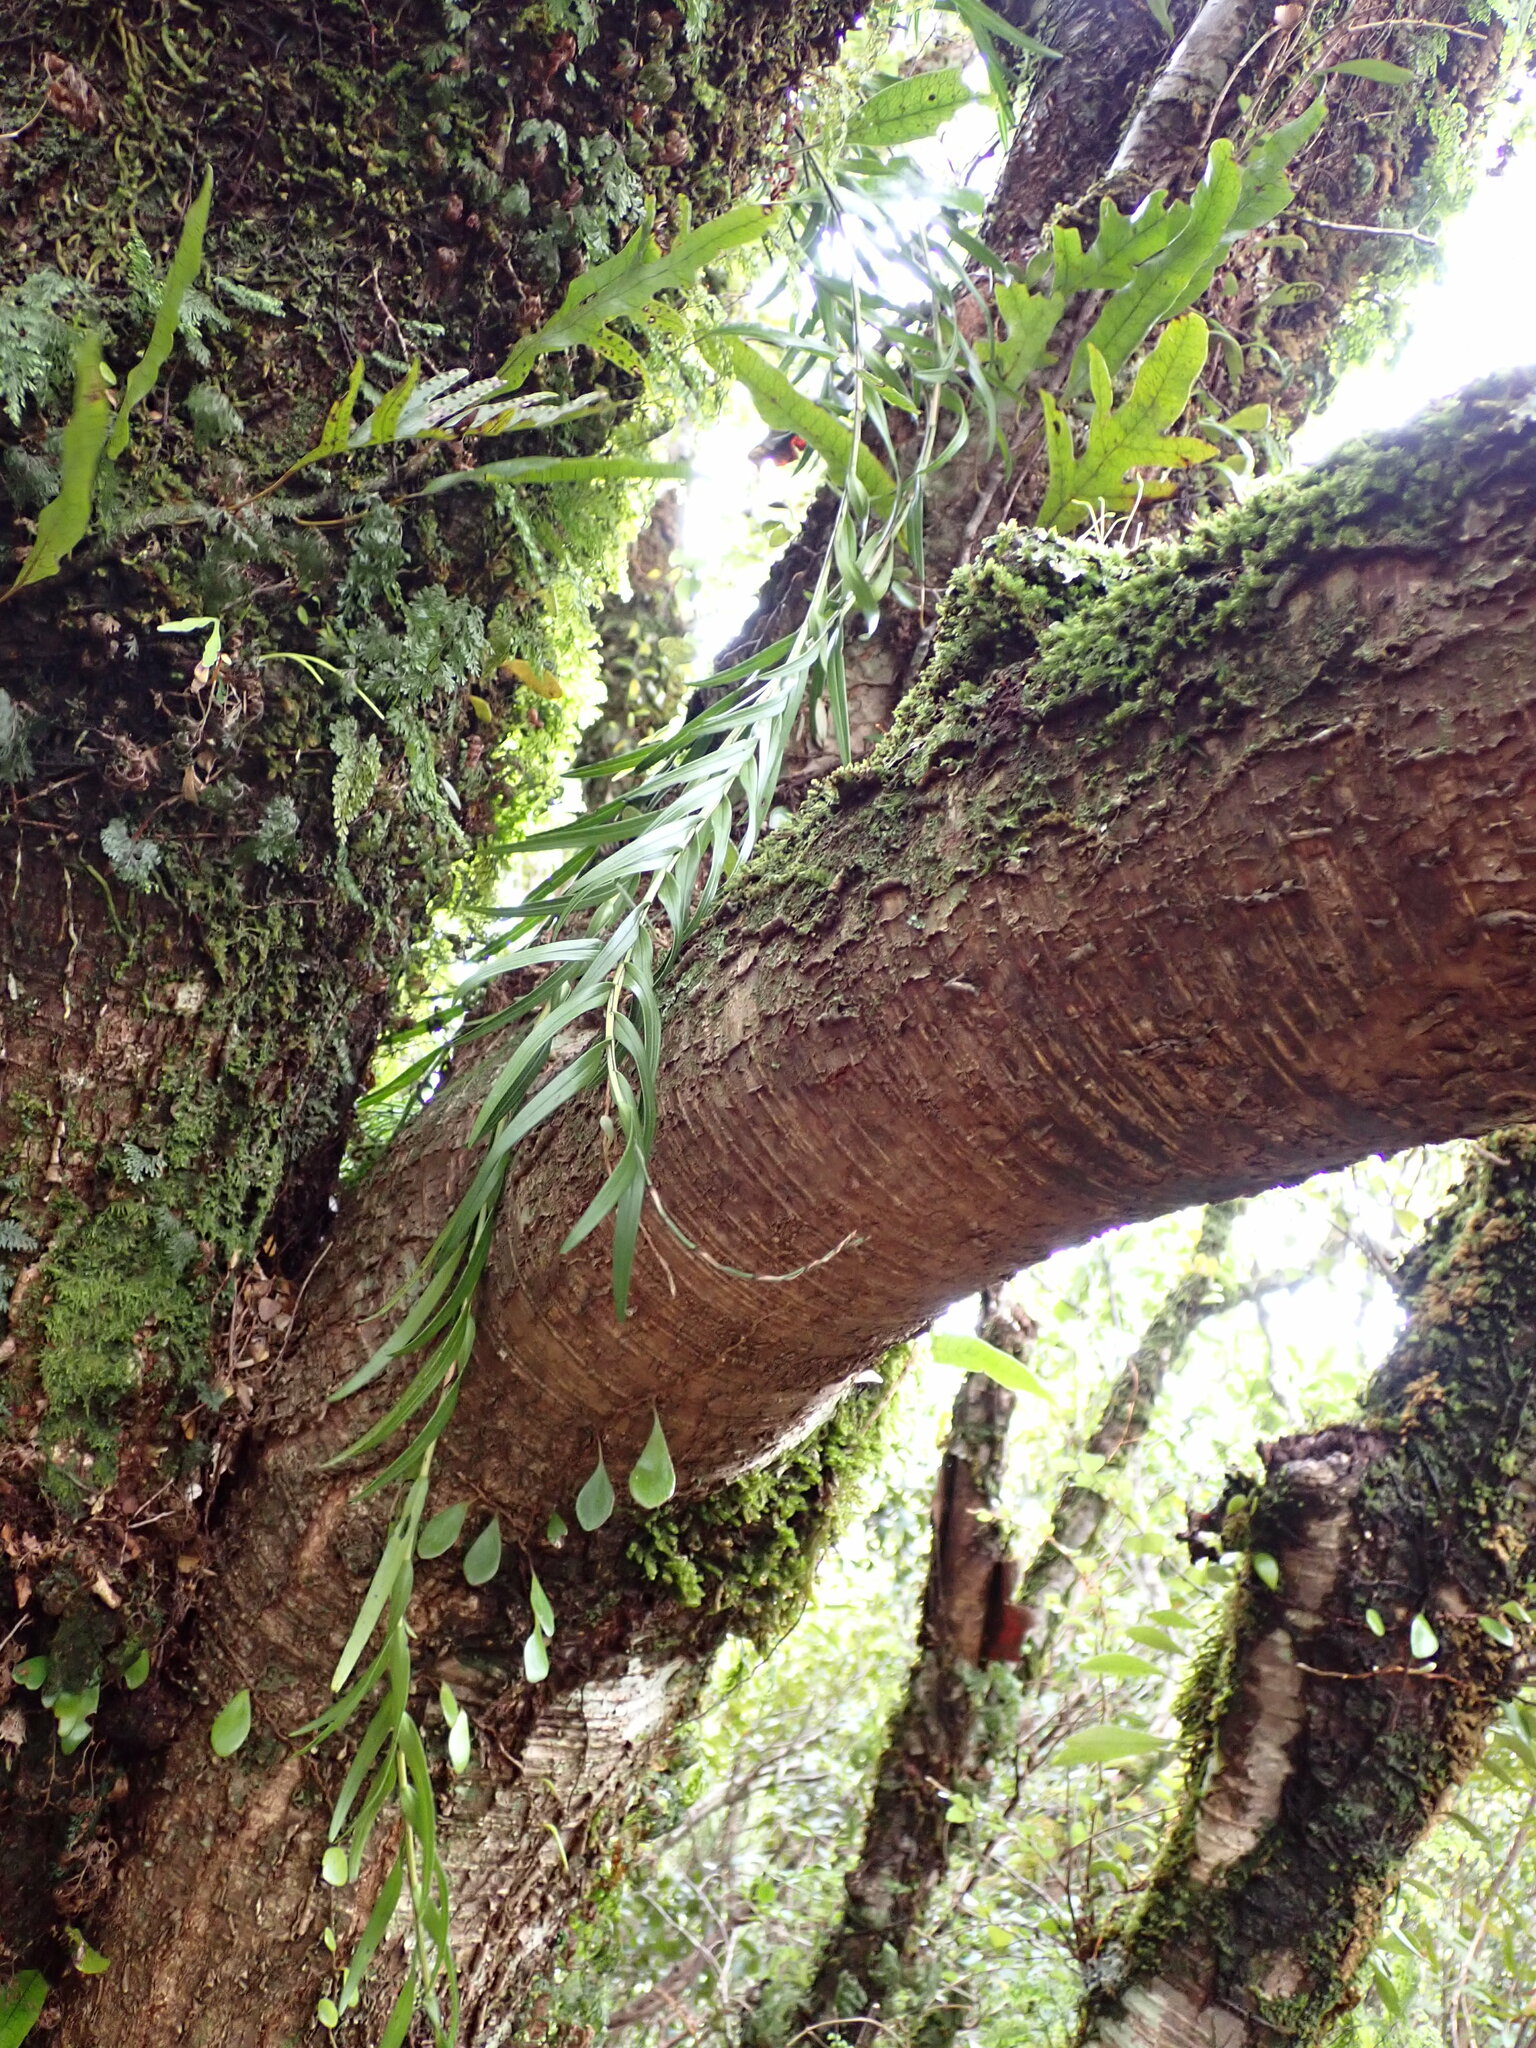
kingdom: Plantae
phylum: Tracheophyta
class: Liliopsida
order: Asparagales
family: Orchidaceae
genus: Earina
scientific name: Earina autumnalis
